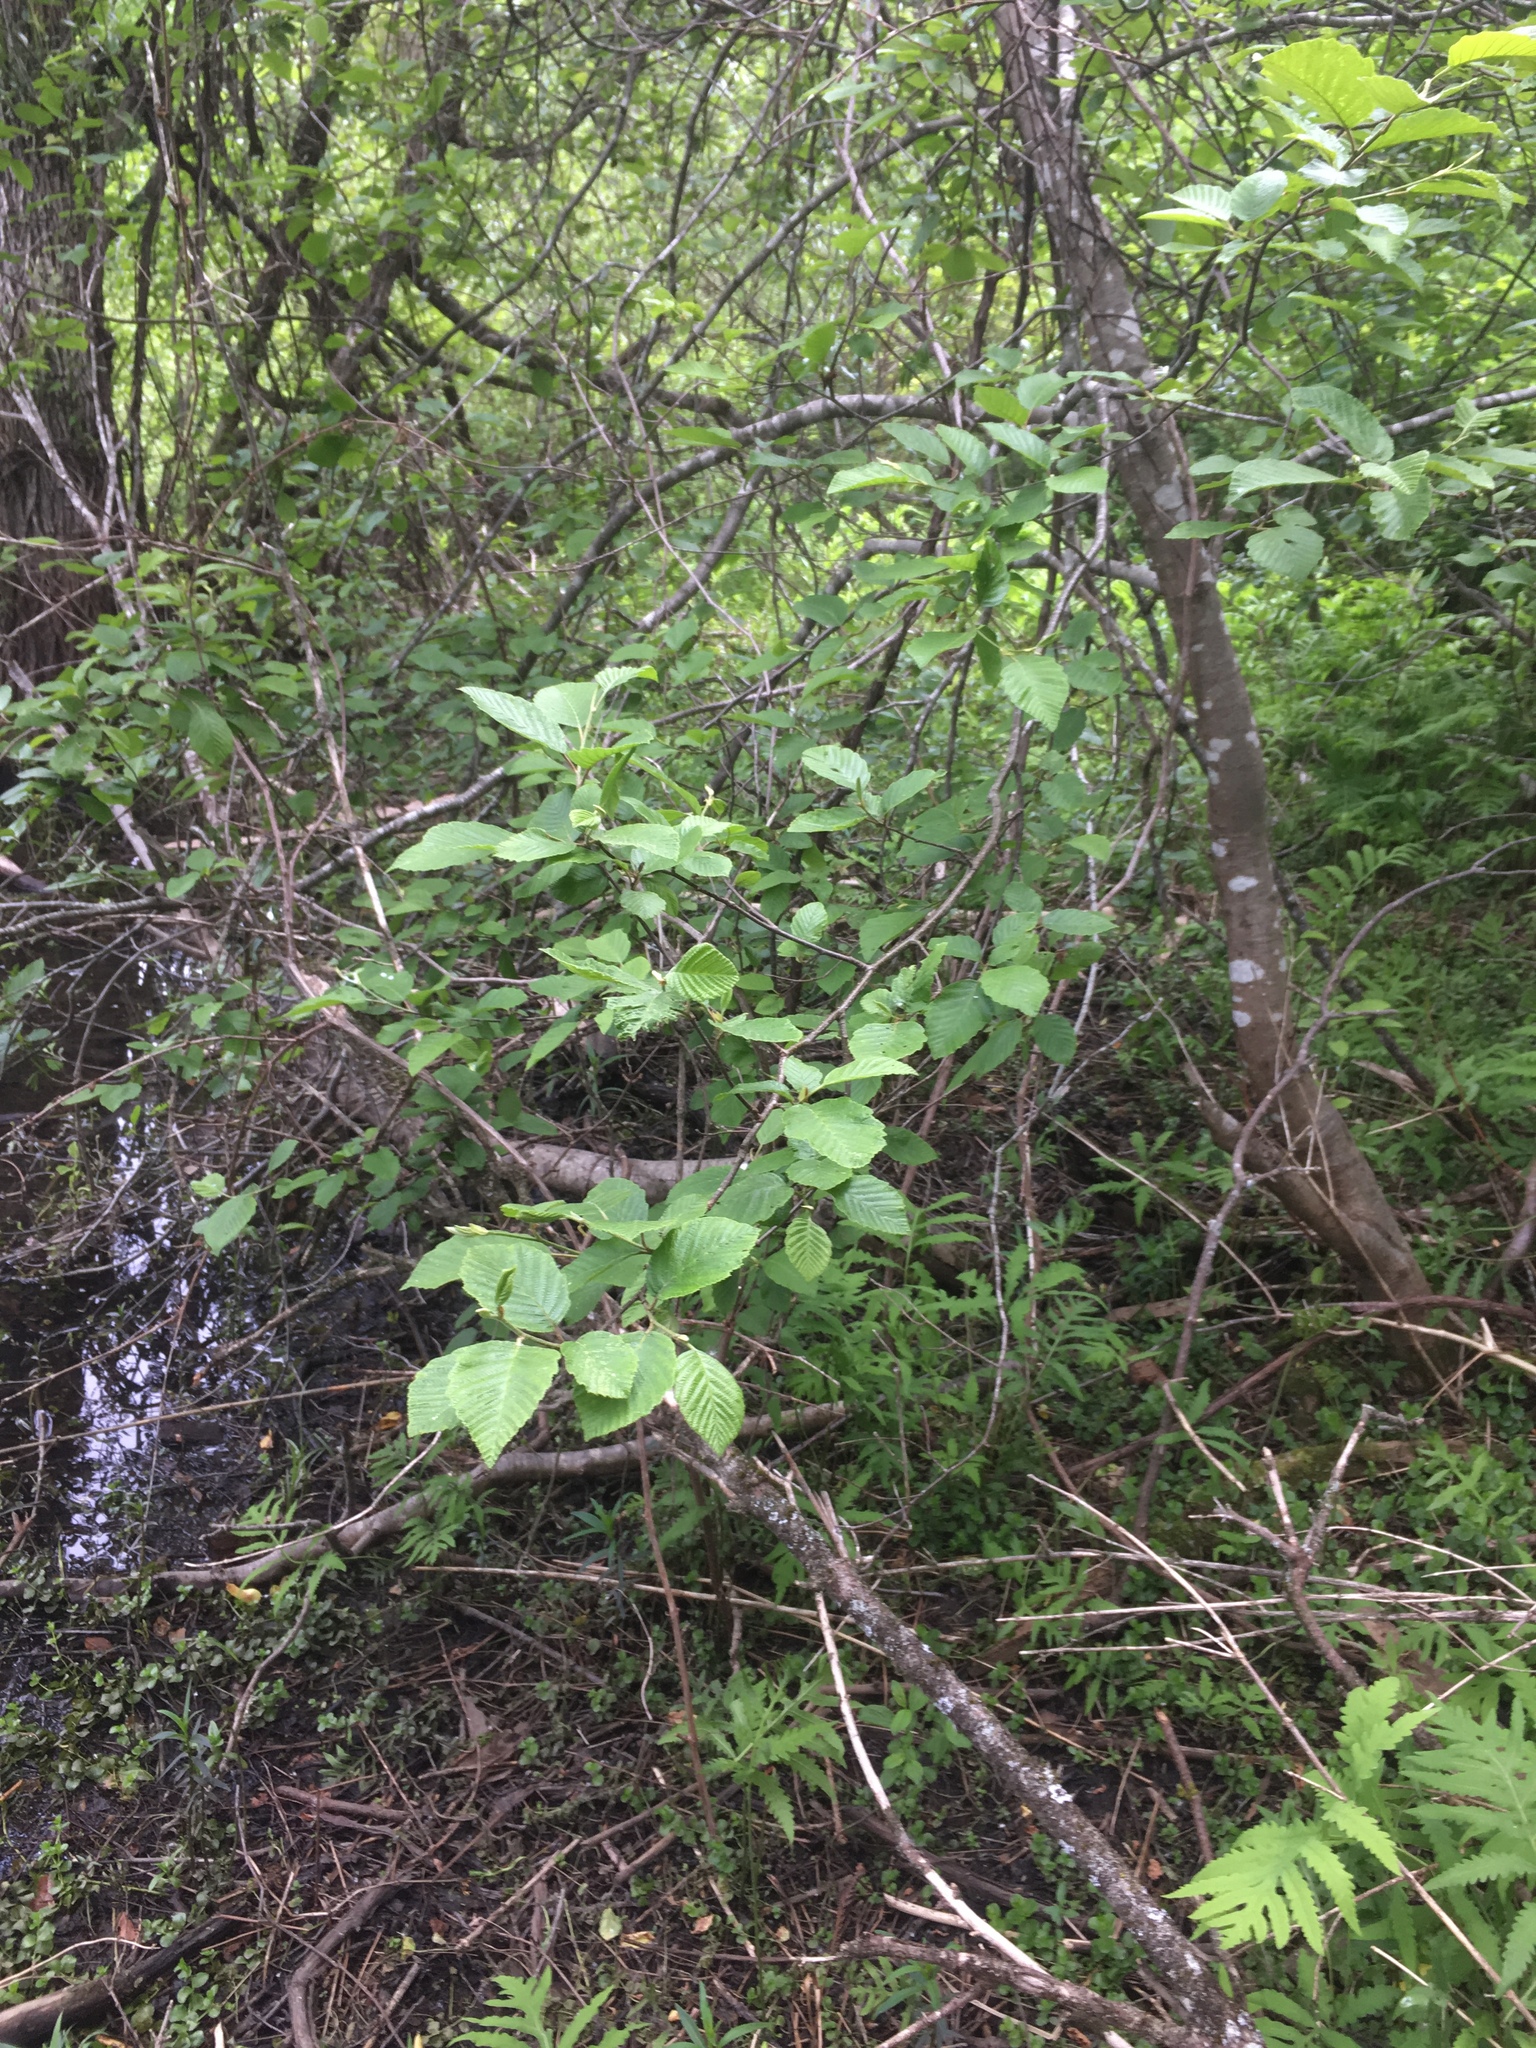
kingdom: Plantae
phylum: Tracheophyta
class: Magnoliopsida
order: Fagales
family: Betulaceae
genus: Alnus
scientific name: Alnus incana
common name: Grey alder
